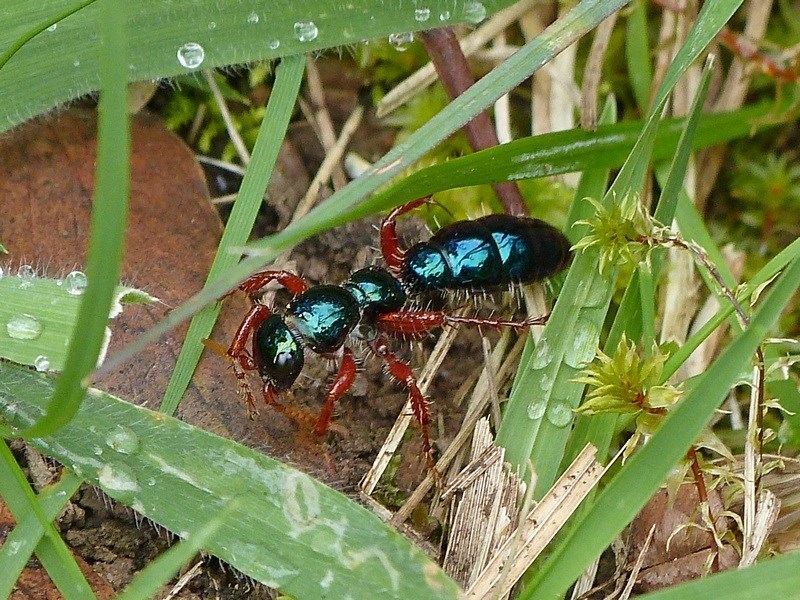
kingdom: Animalia
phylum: Arthropoda
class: Insecta
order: Hymenoptera
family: Tiphiidae
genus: Diamma
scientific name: Diamma
